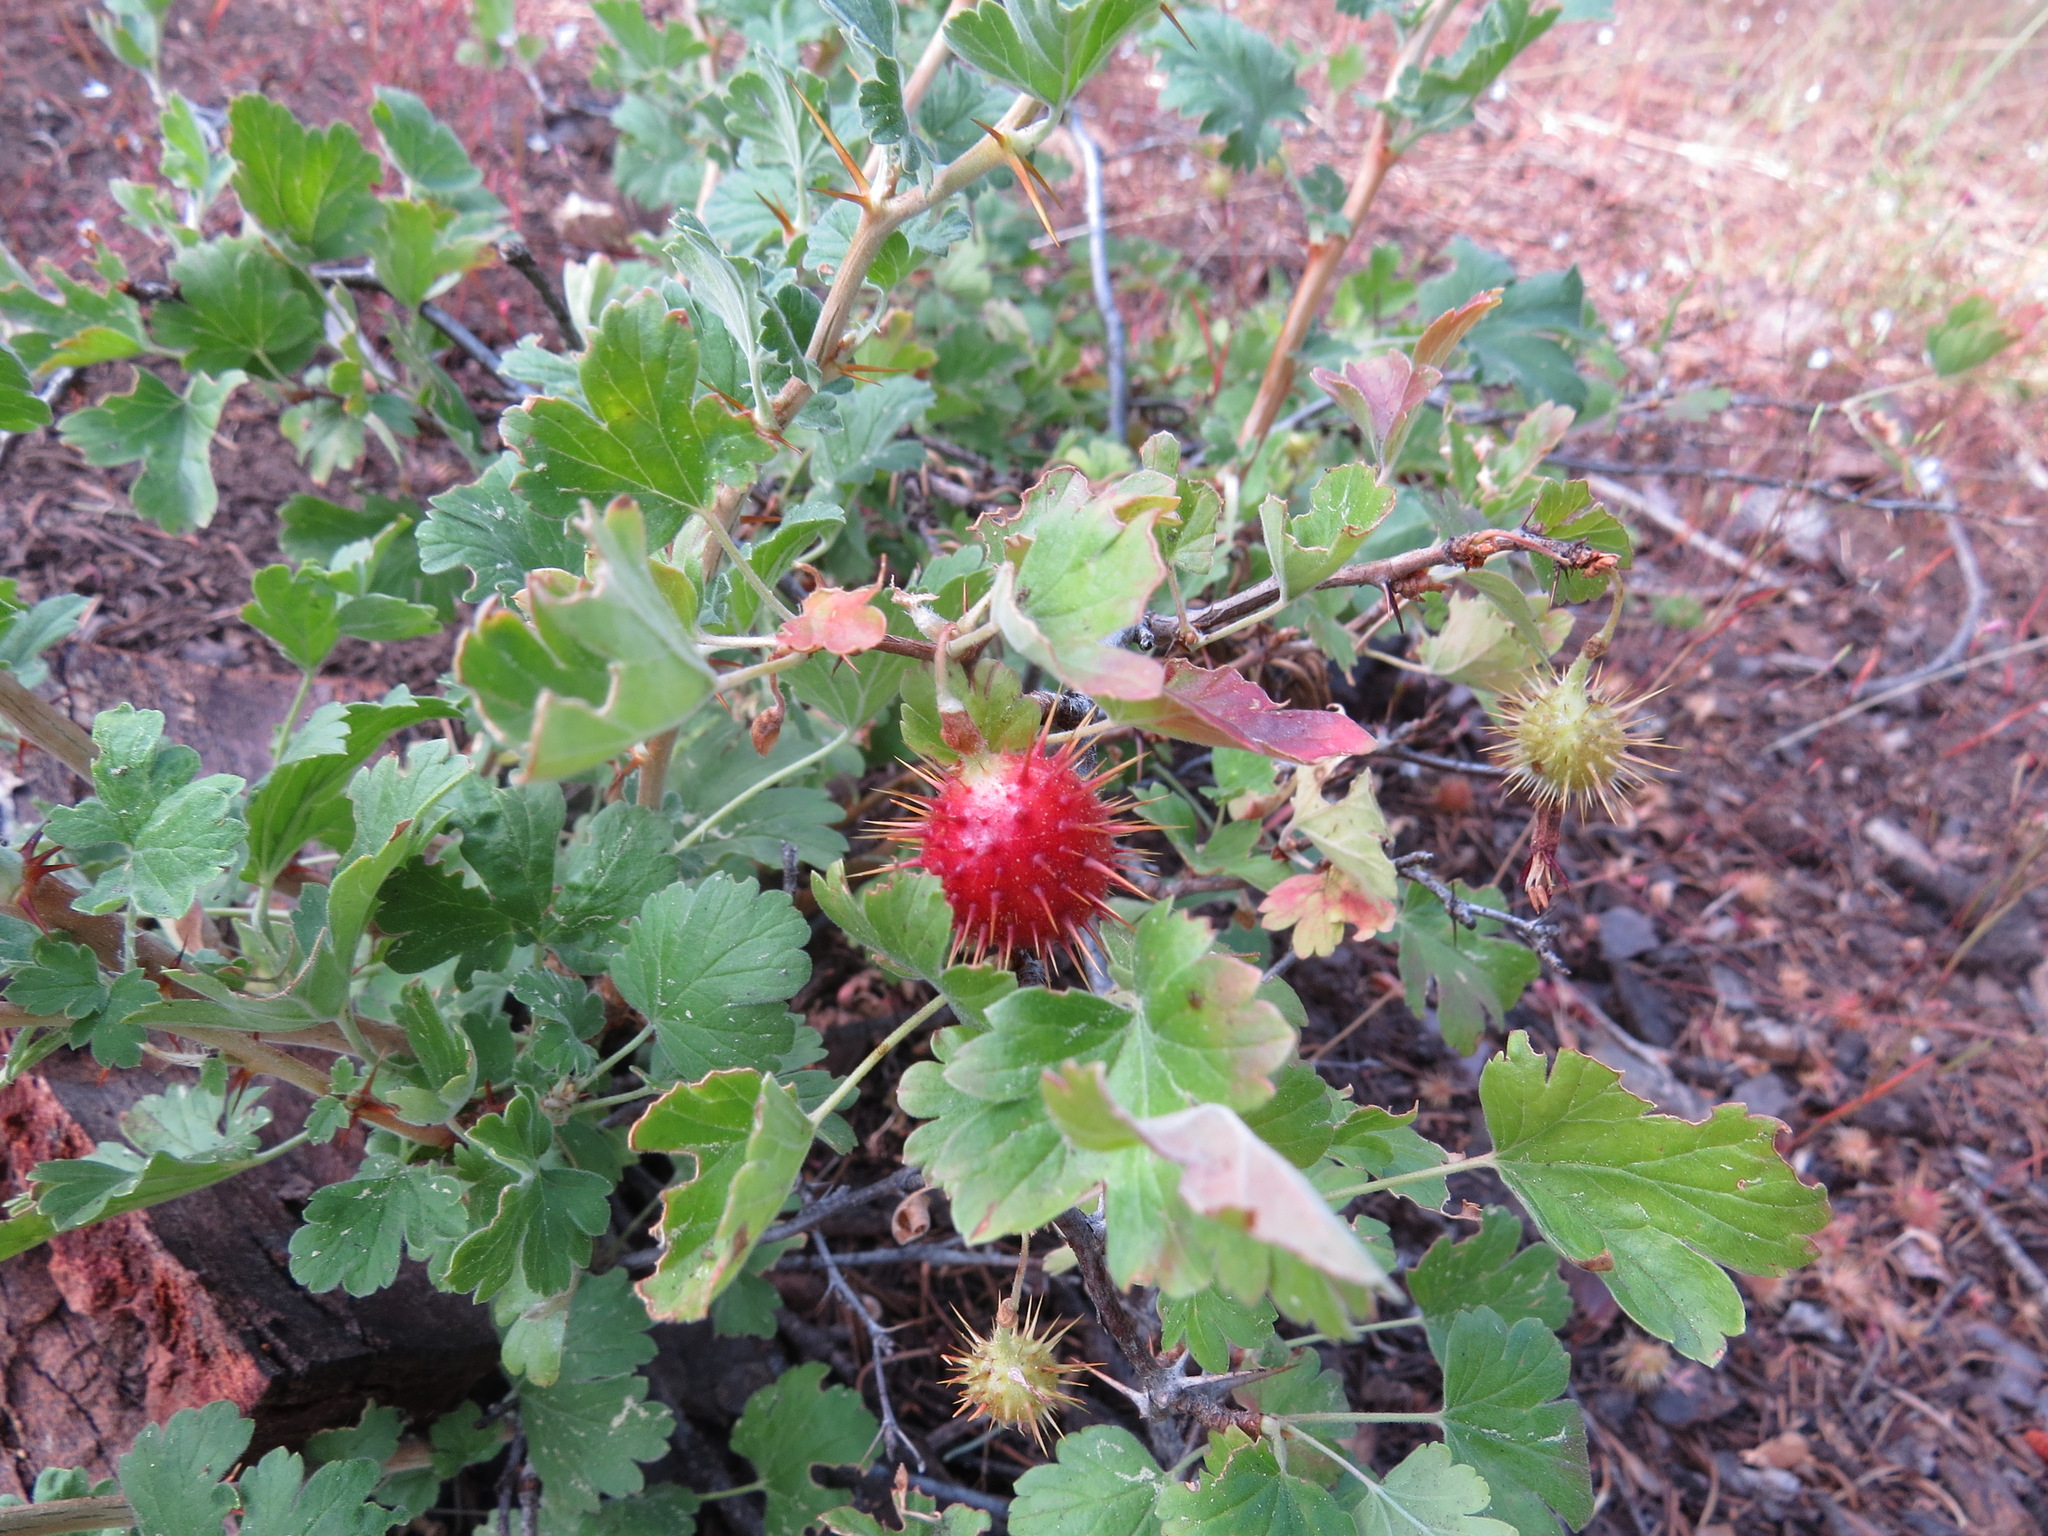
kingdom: Plantae
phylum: Tracheophyta
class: Magnoliopsida
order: Saxifragales
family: Grossulariaceae
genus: Ribes
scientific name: Ribes roezlii
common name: Sierra gooseberry
